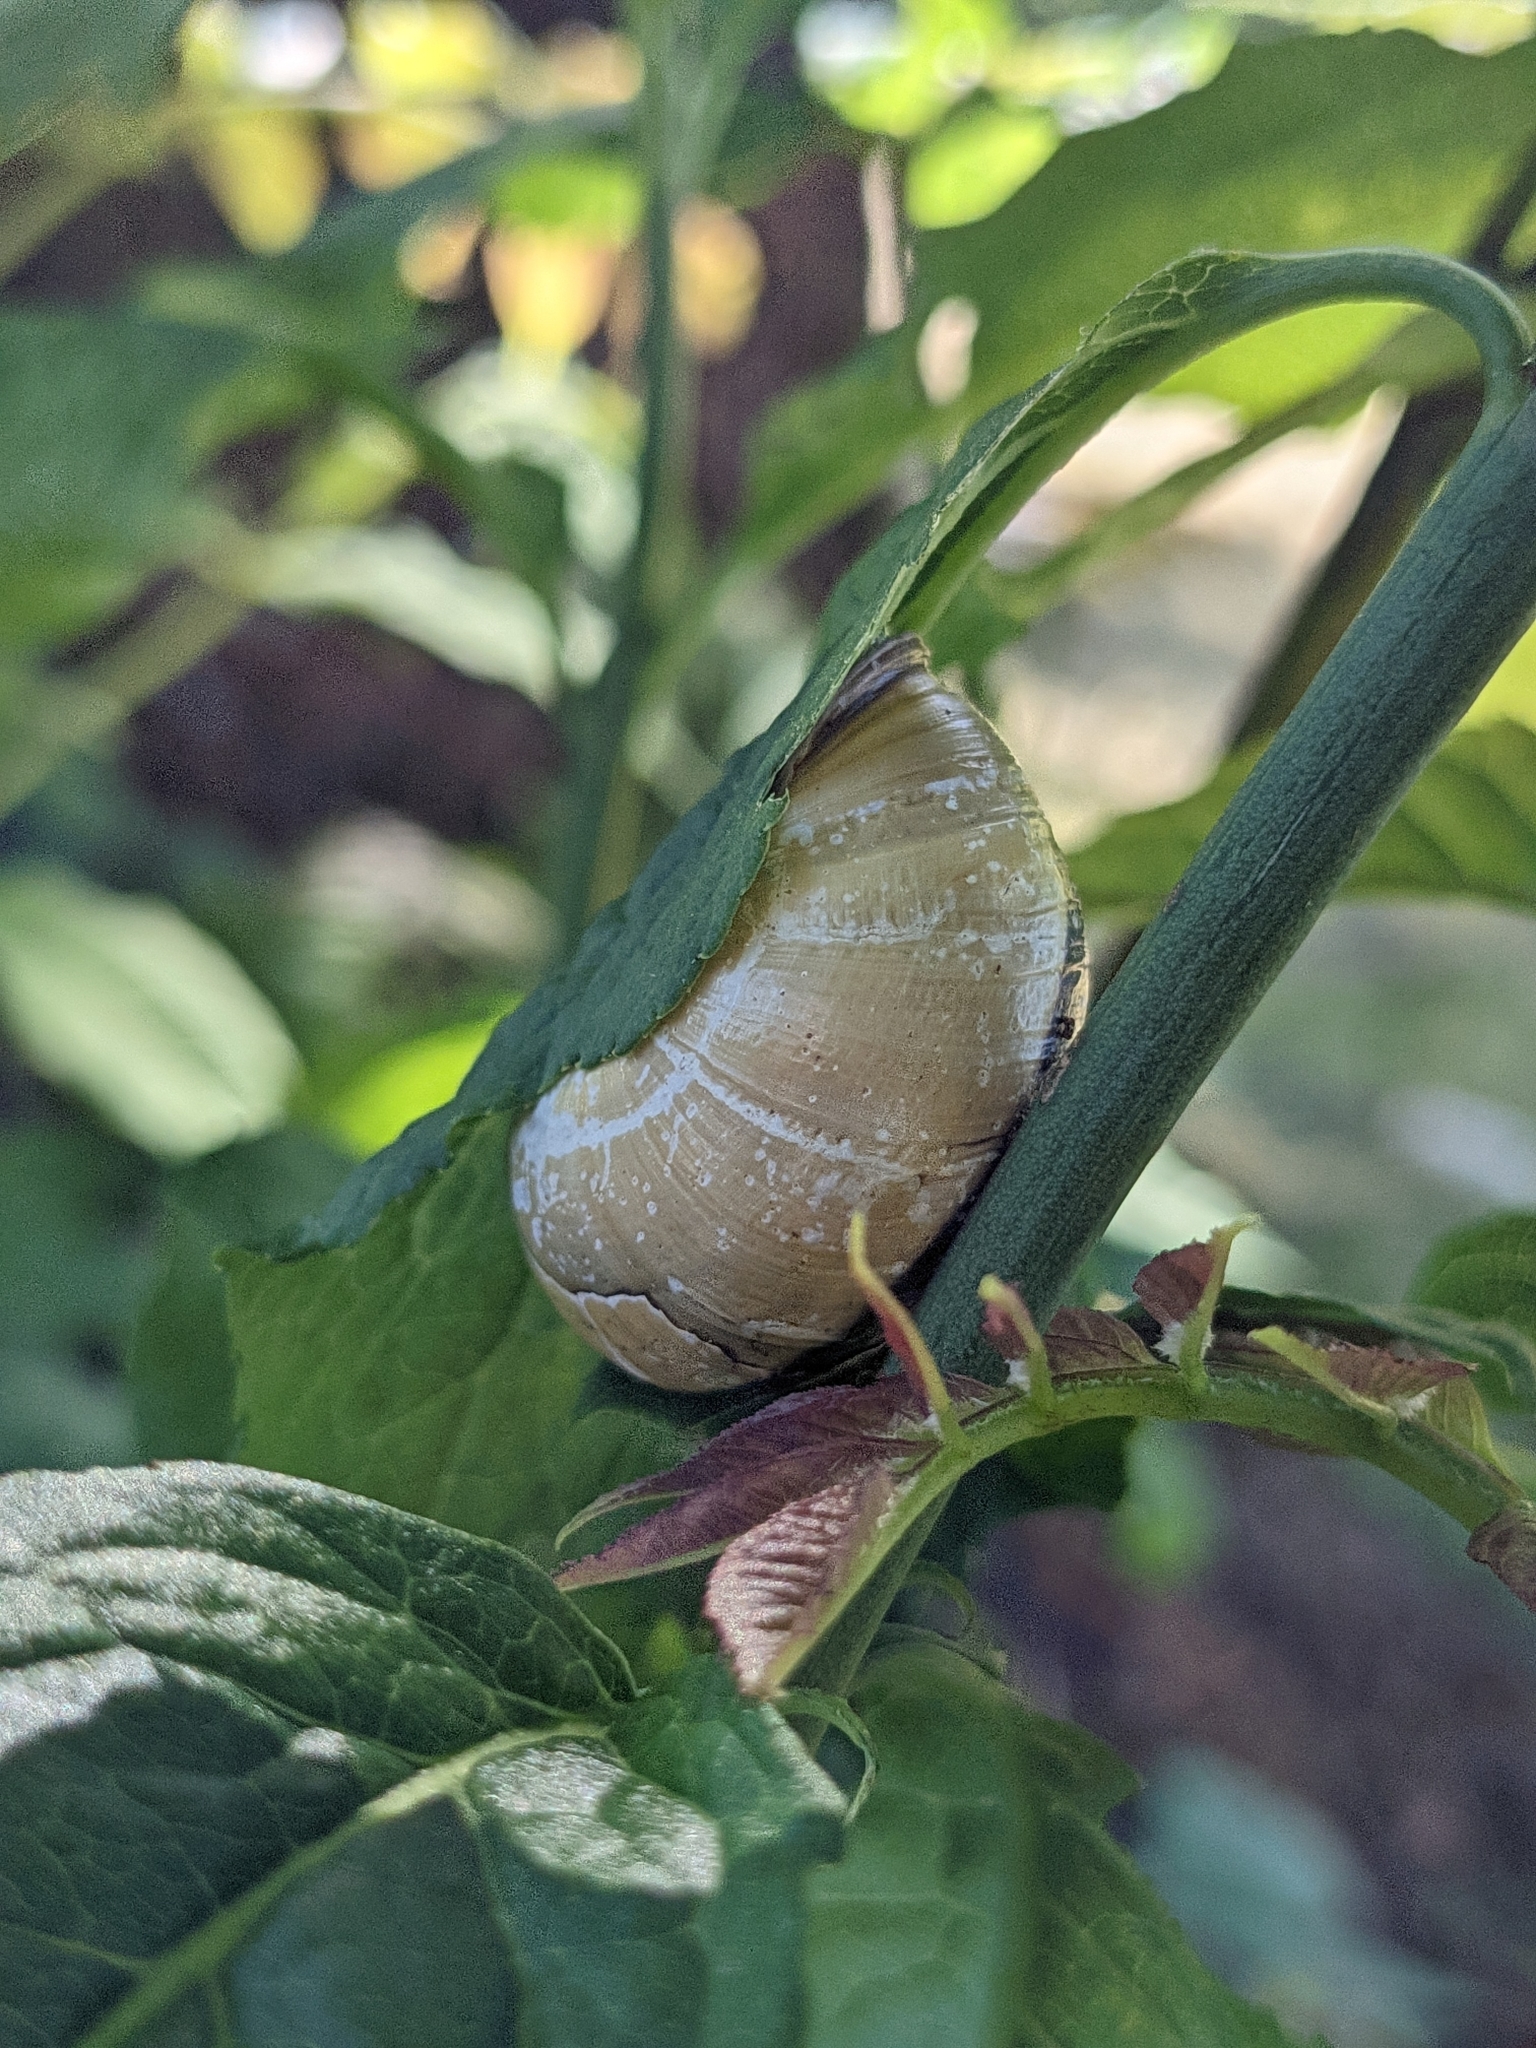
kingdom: Animalia
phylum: Mollusca
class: Gastropoda
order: Stylommatophora
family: Helicidae
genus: Cepaea
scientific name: Cepaea nemoralis
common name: Grovesnail
